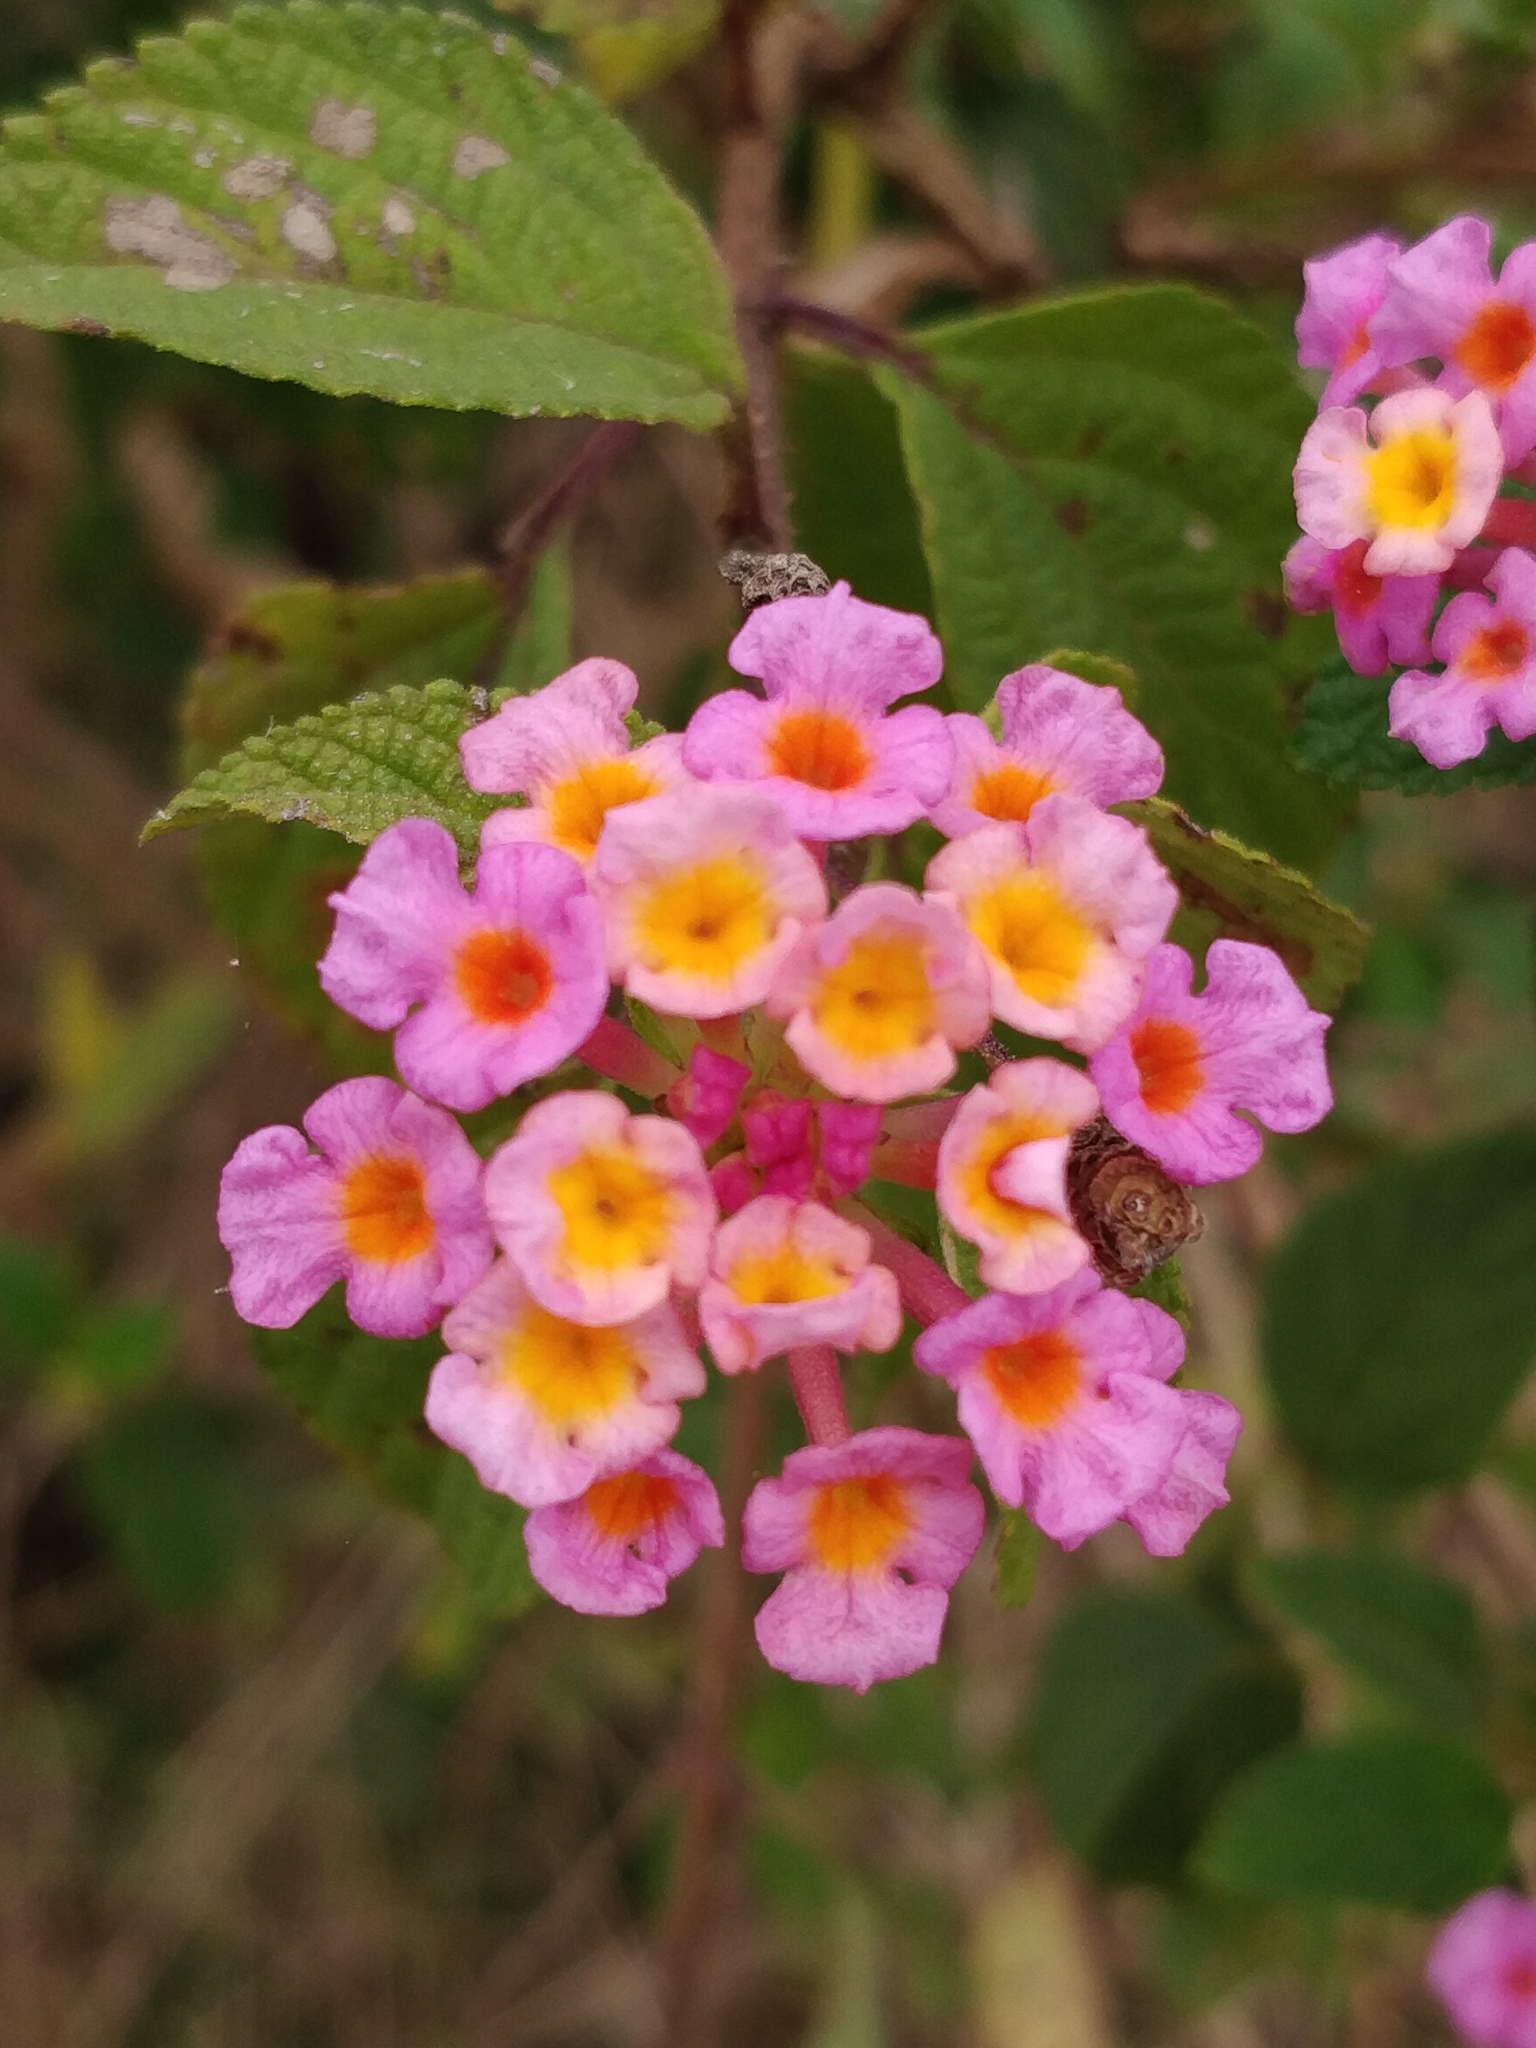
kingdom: Plantae
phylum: Tracheophyta
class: Magnoliopsida
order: Lamiales
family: Verbenaceae
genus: Lantana
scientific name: Lantana camara
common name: Lantana
